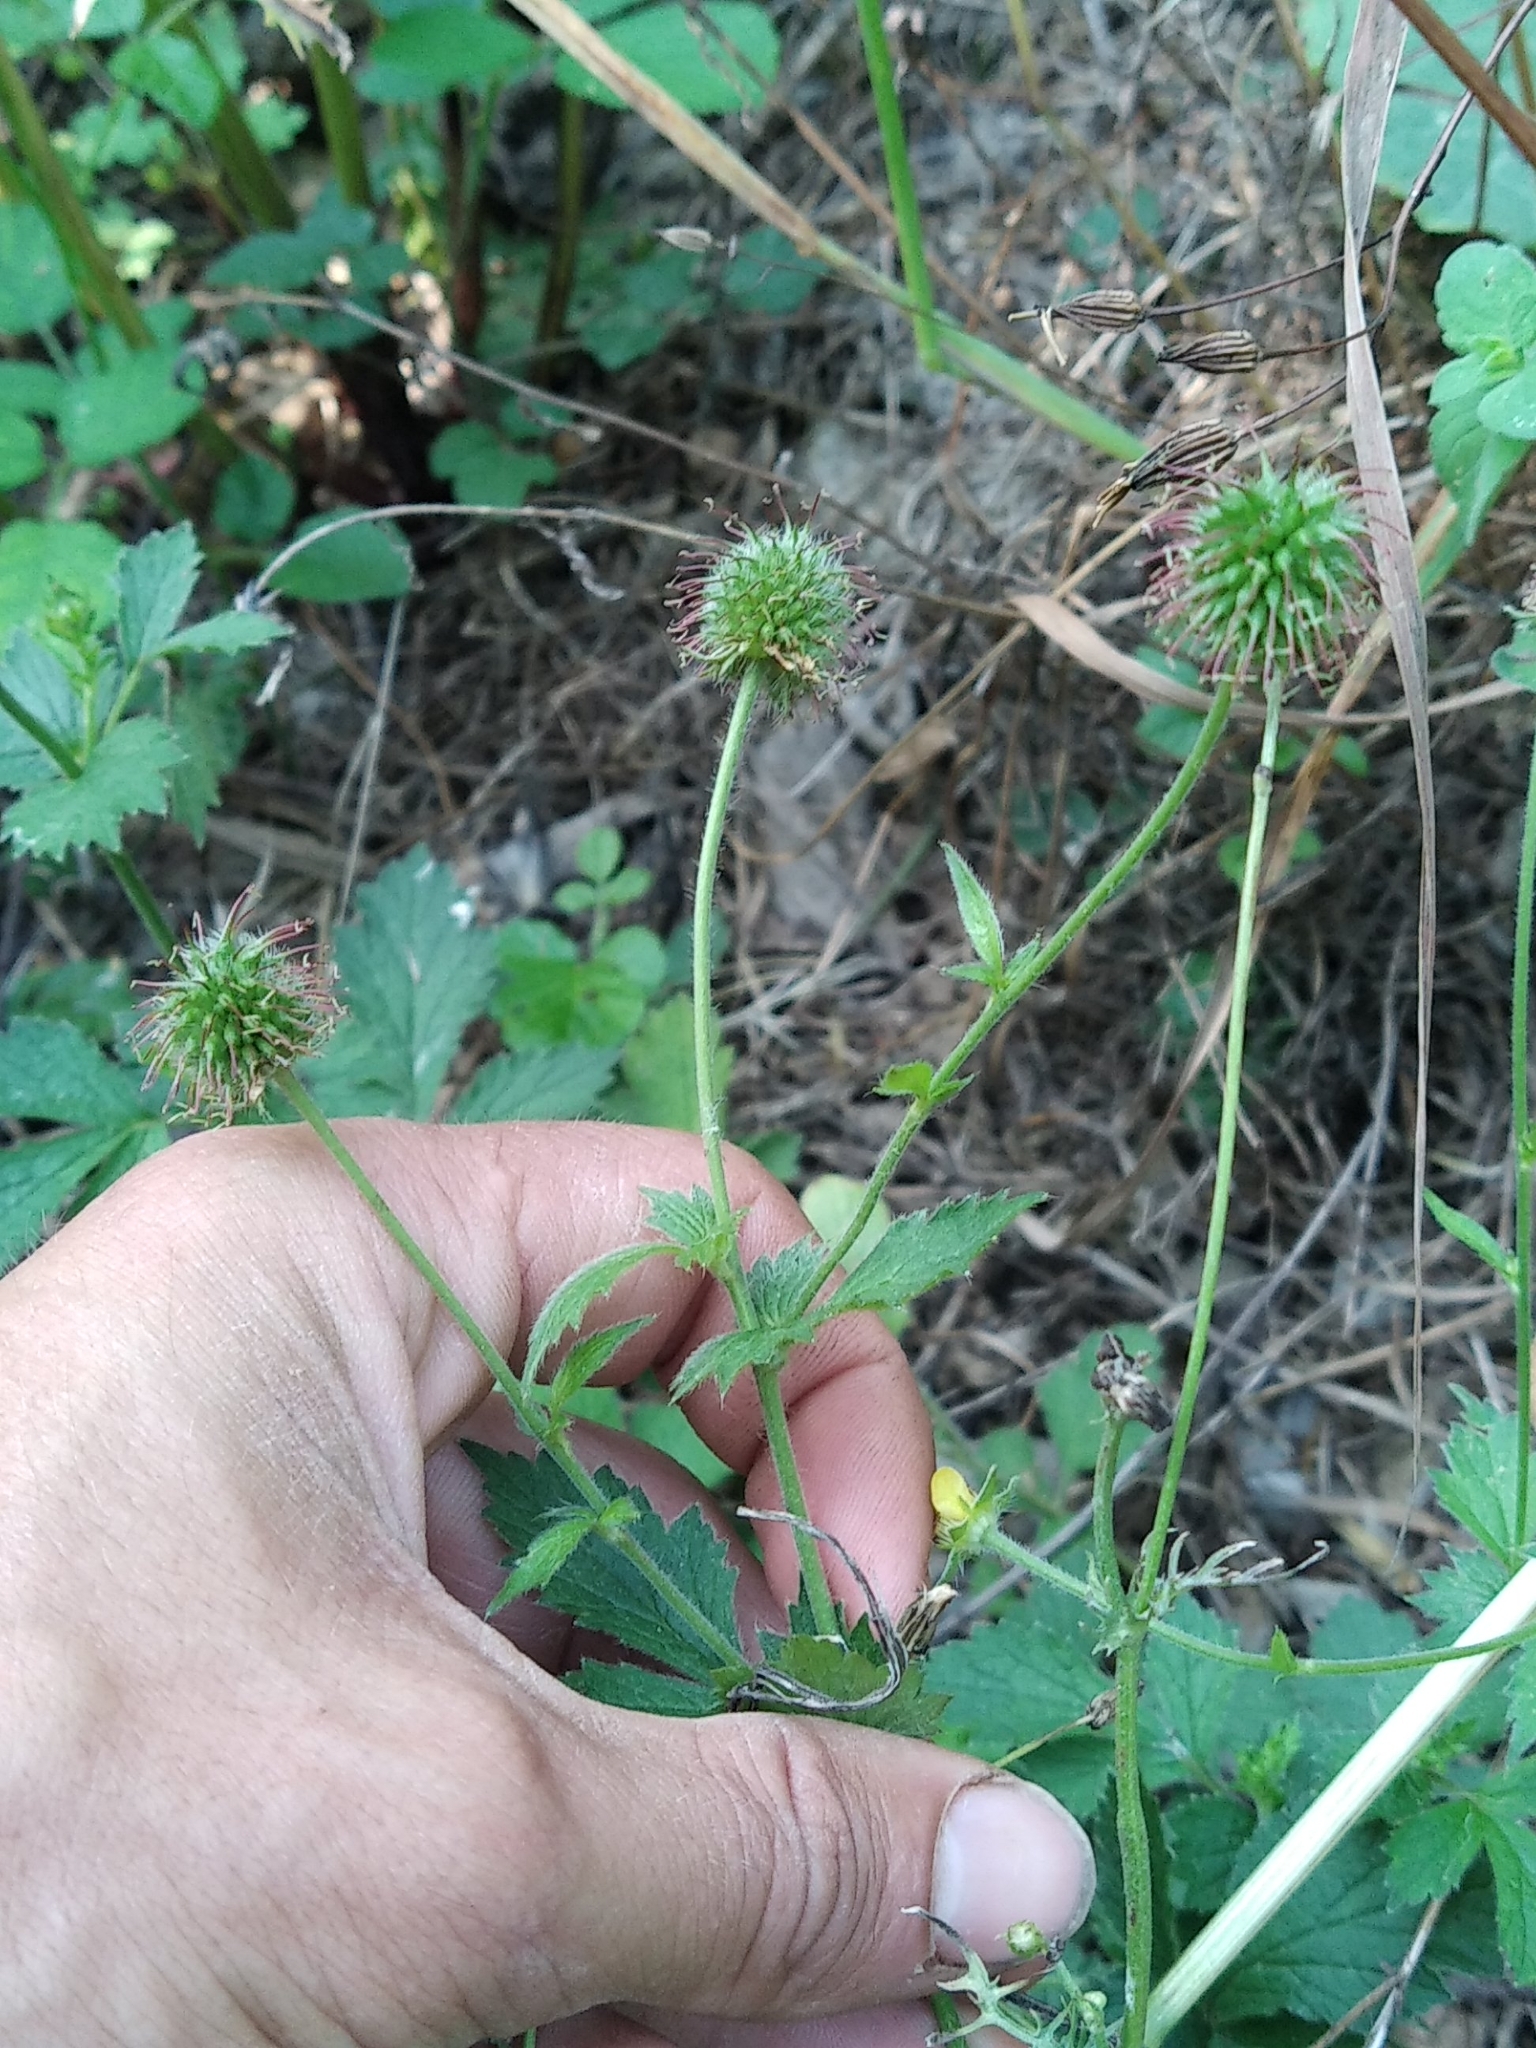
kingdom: Plantae
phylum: Tracheophyta
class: Magnoliopsida
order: Rosales
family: Rosaceae
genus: Geum
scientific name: Geum urbanum
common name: Wood avens
